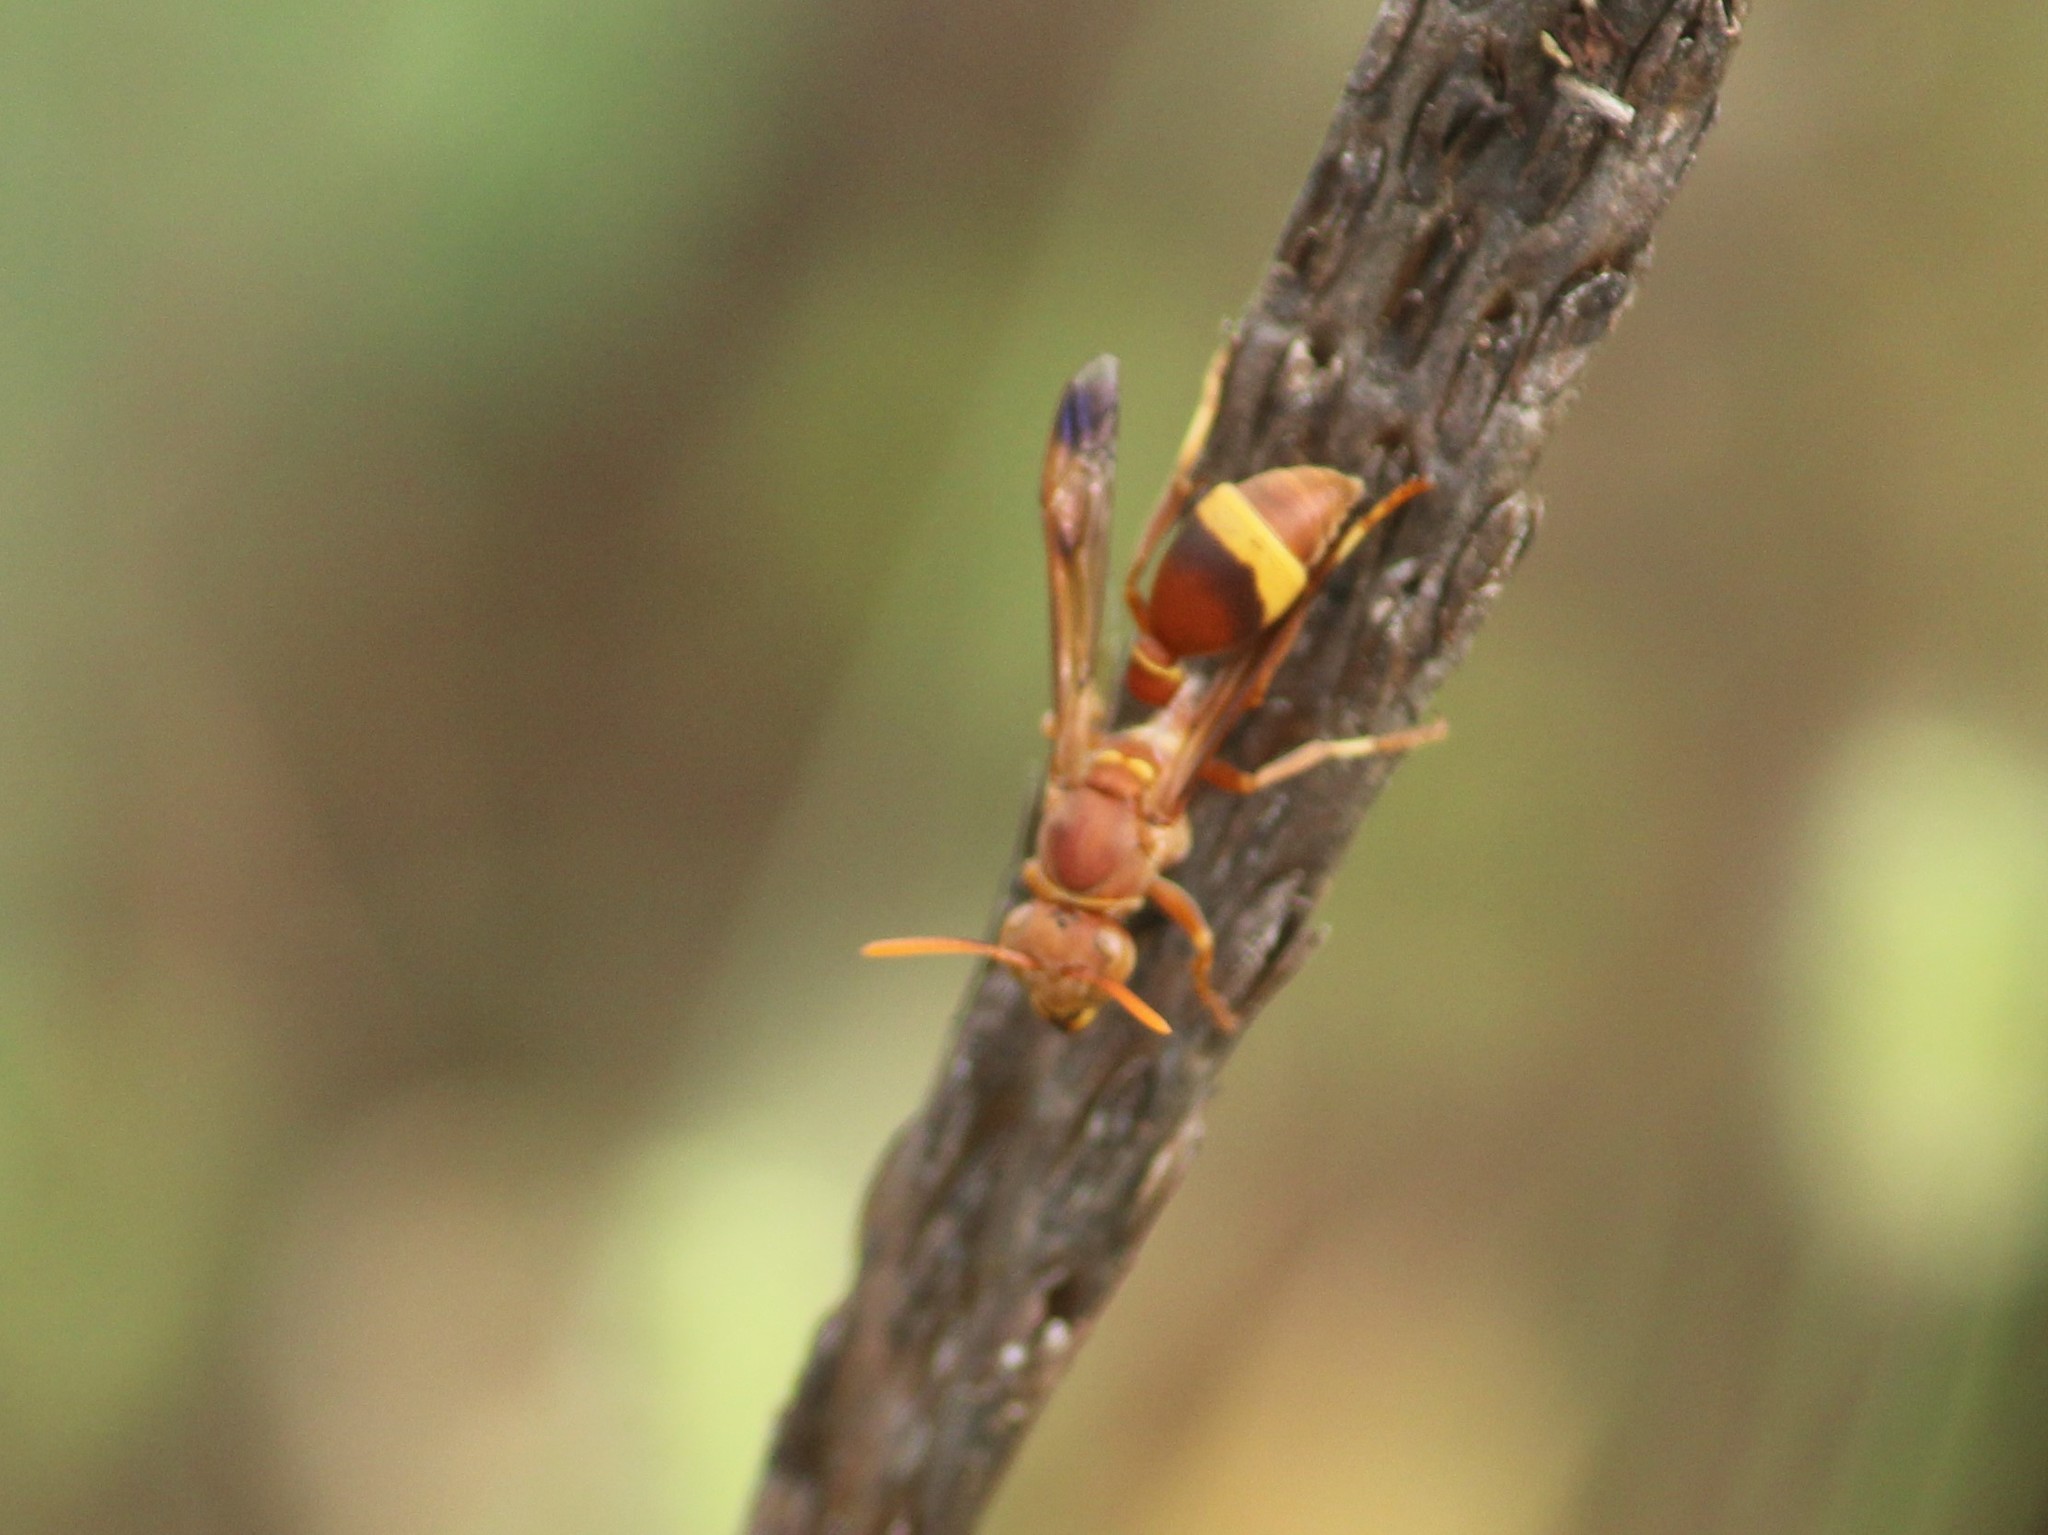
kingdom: Animalia
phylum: Arthropoda
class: Insecta
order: Hymenoptera
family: Vespidae
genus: Ropalidia
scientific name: Ropalidia
